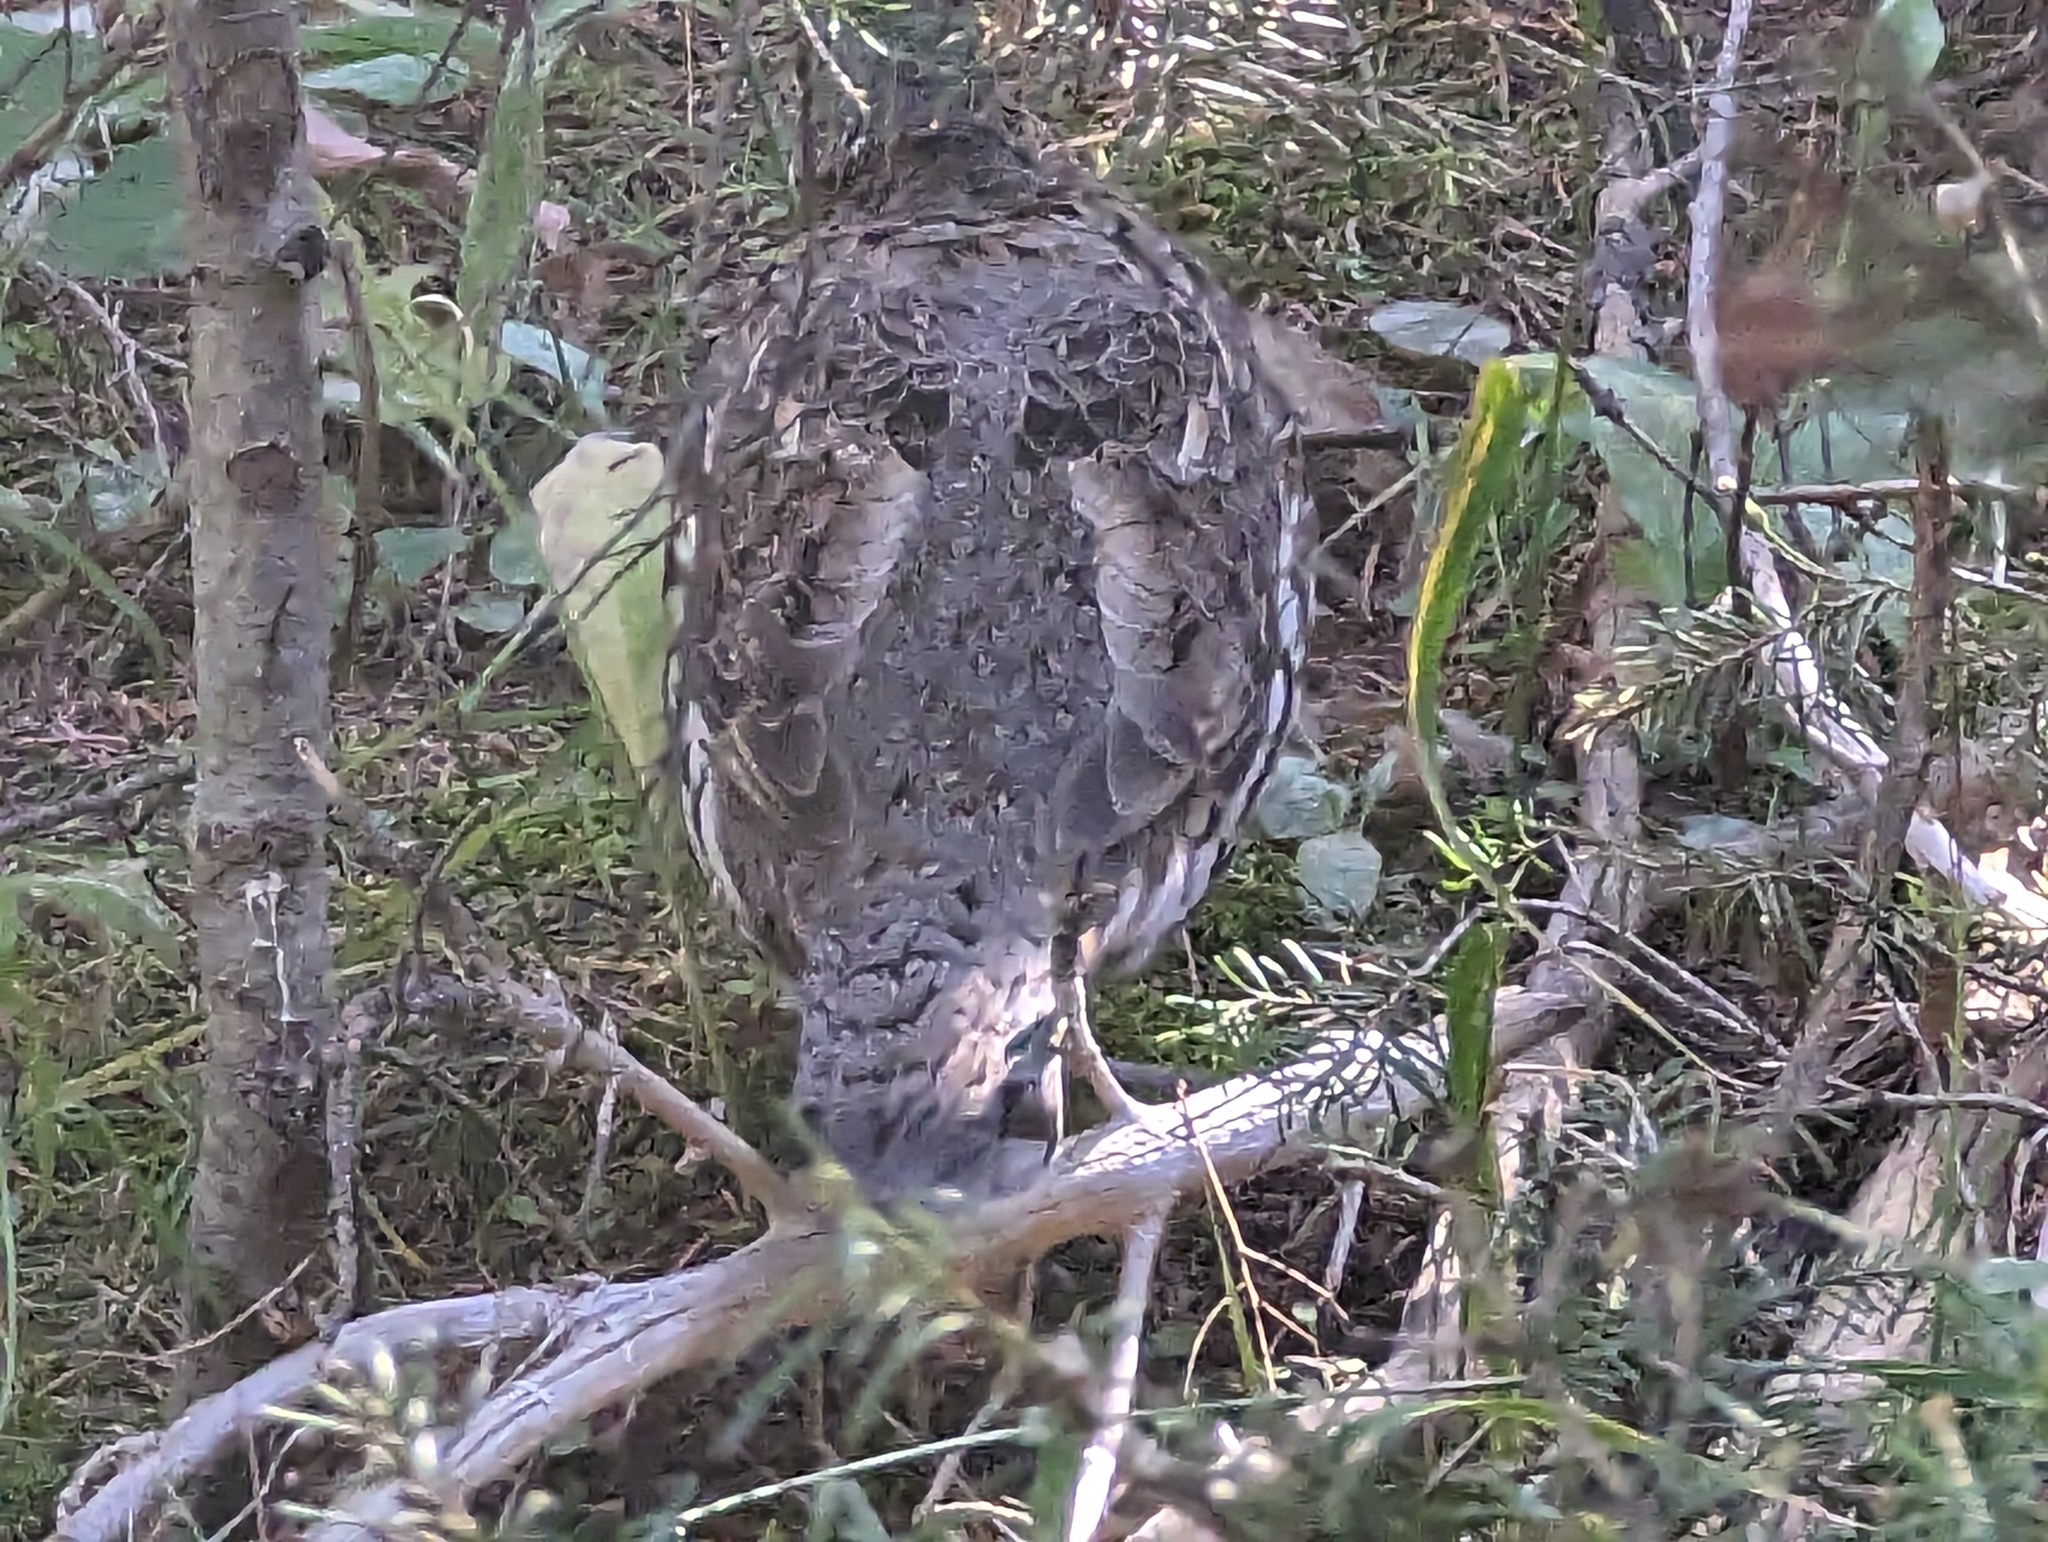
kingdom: Animalia
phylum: Chordata
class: Aves
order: Galliformes
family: Phasianidae
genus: Bonasa
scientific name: Bonasa umbellus
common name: Ruffed grouse
